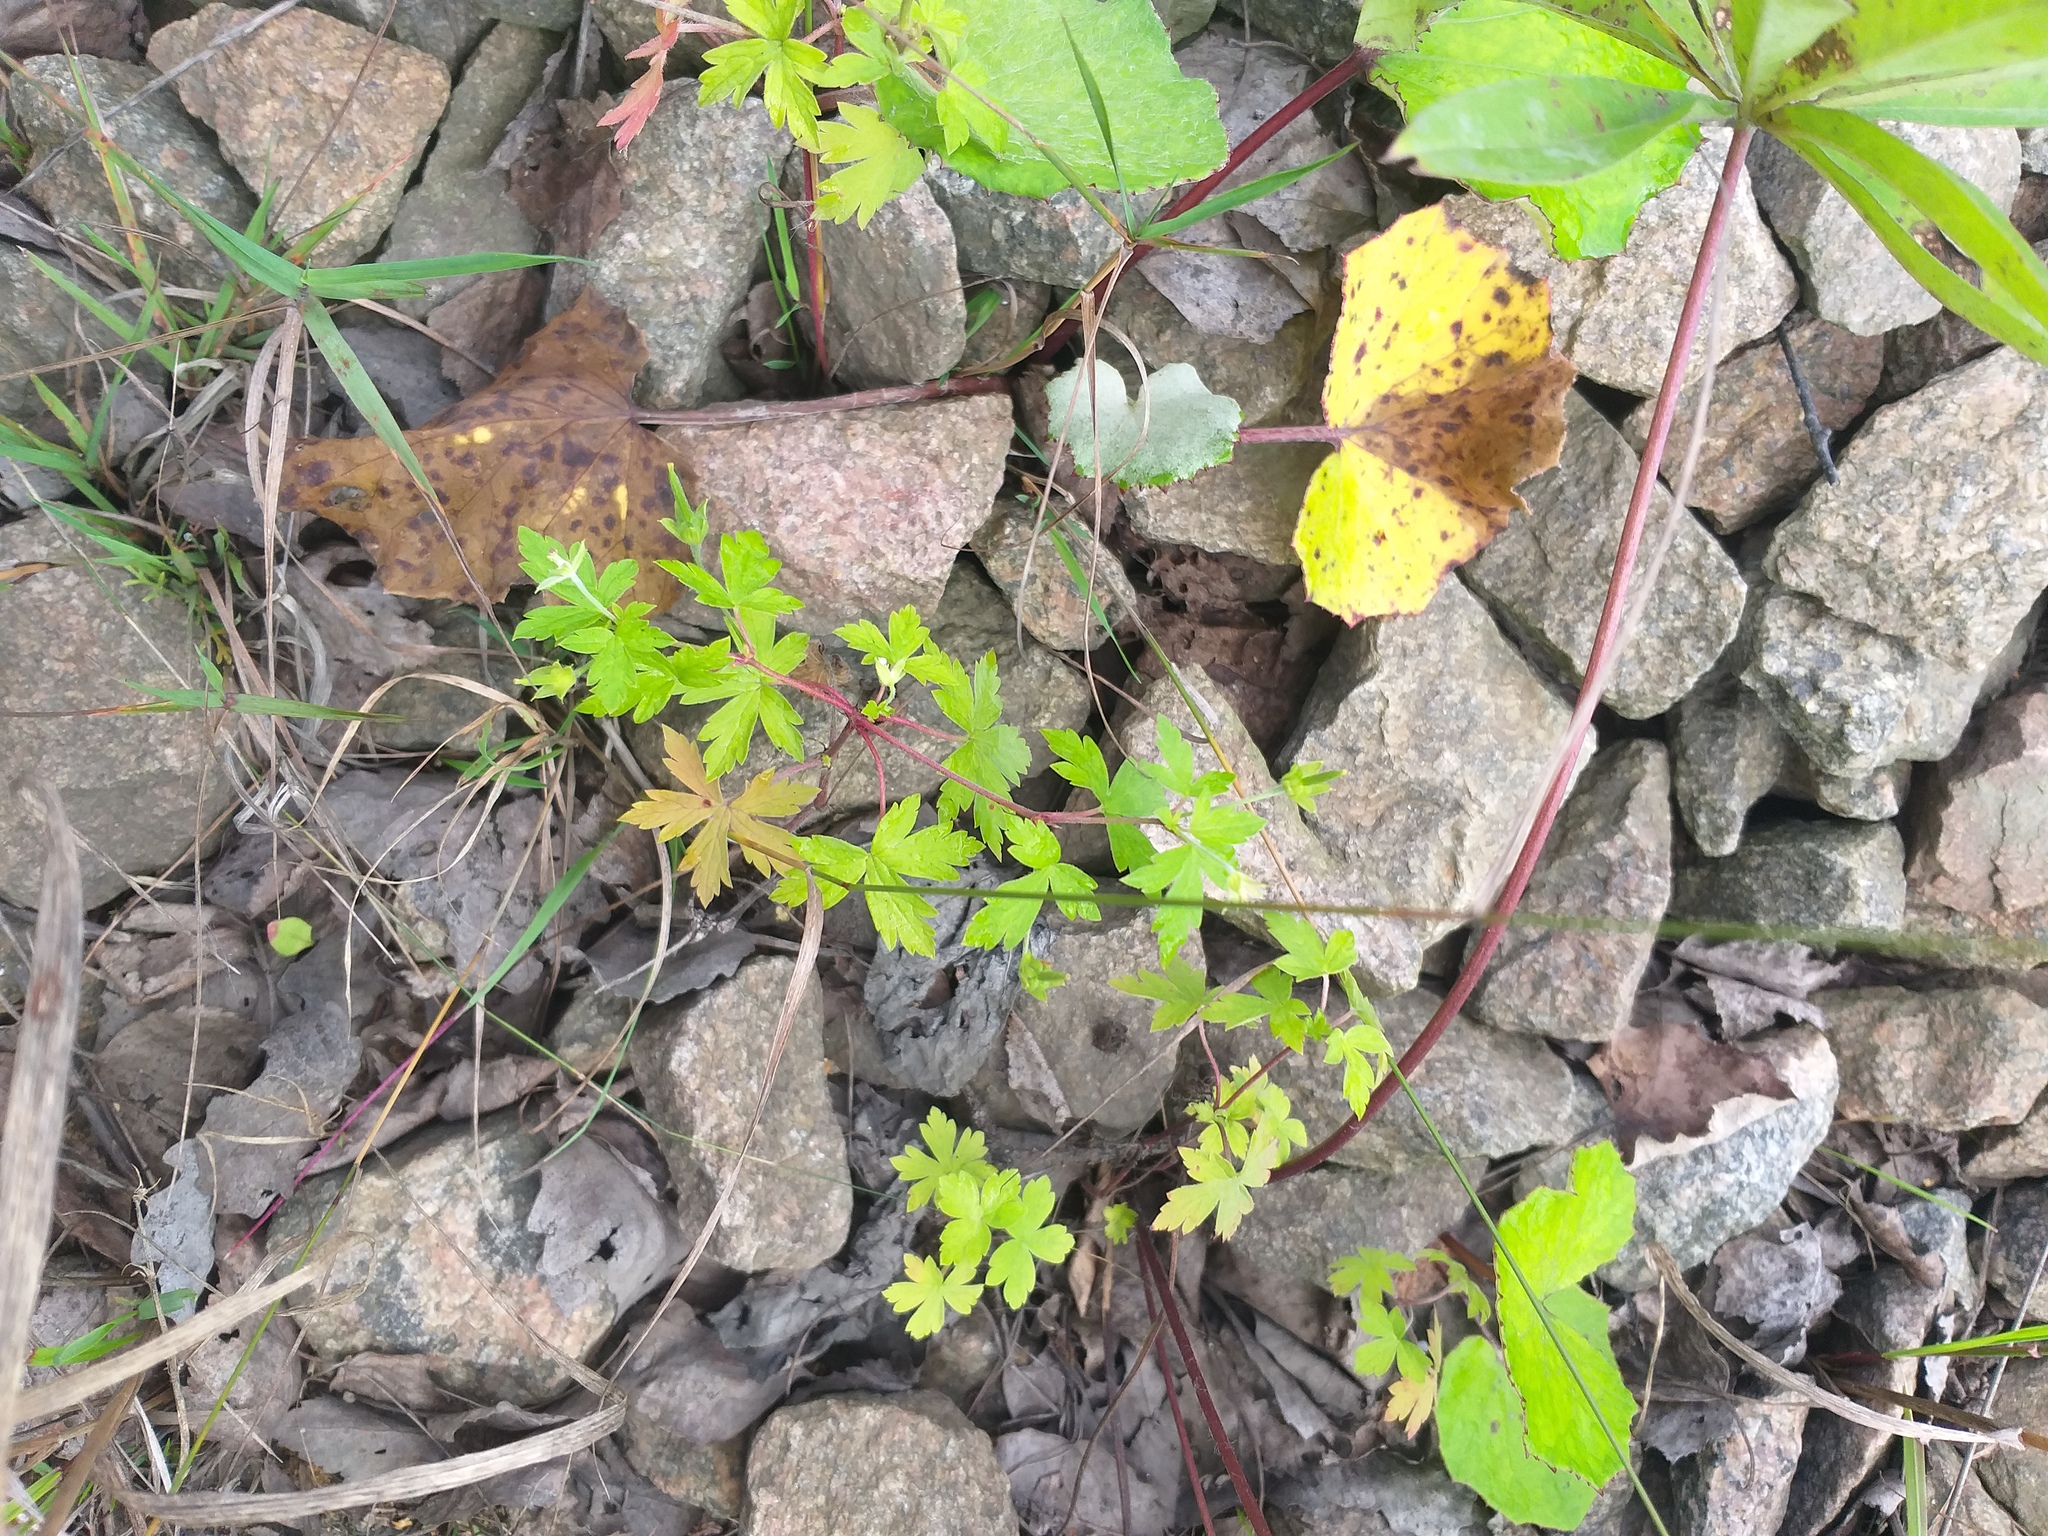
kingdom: Plantae
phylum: Tracheophyta
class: Magnoliopsida
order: Geraniales
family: Geraniaceae
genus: Geranium
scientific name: Geranium sibiricum
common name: Siberian crane's-bill
